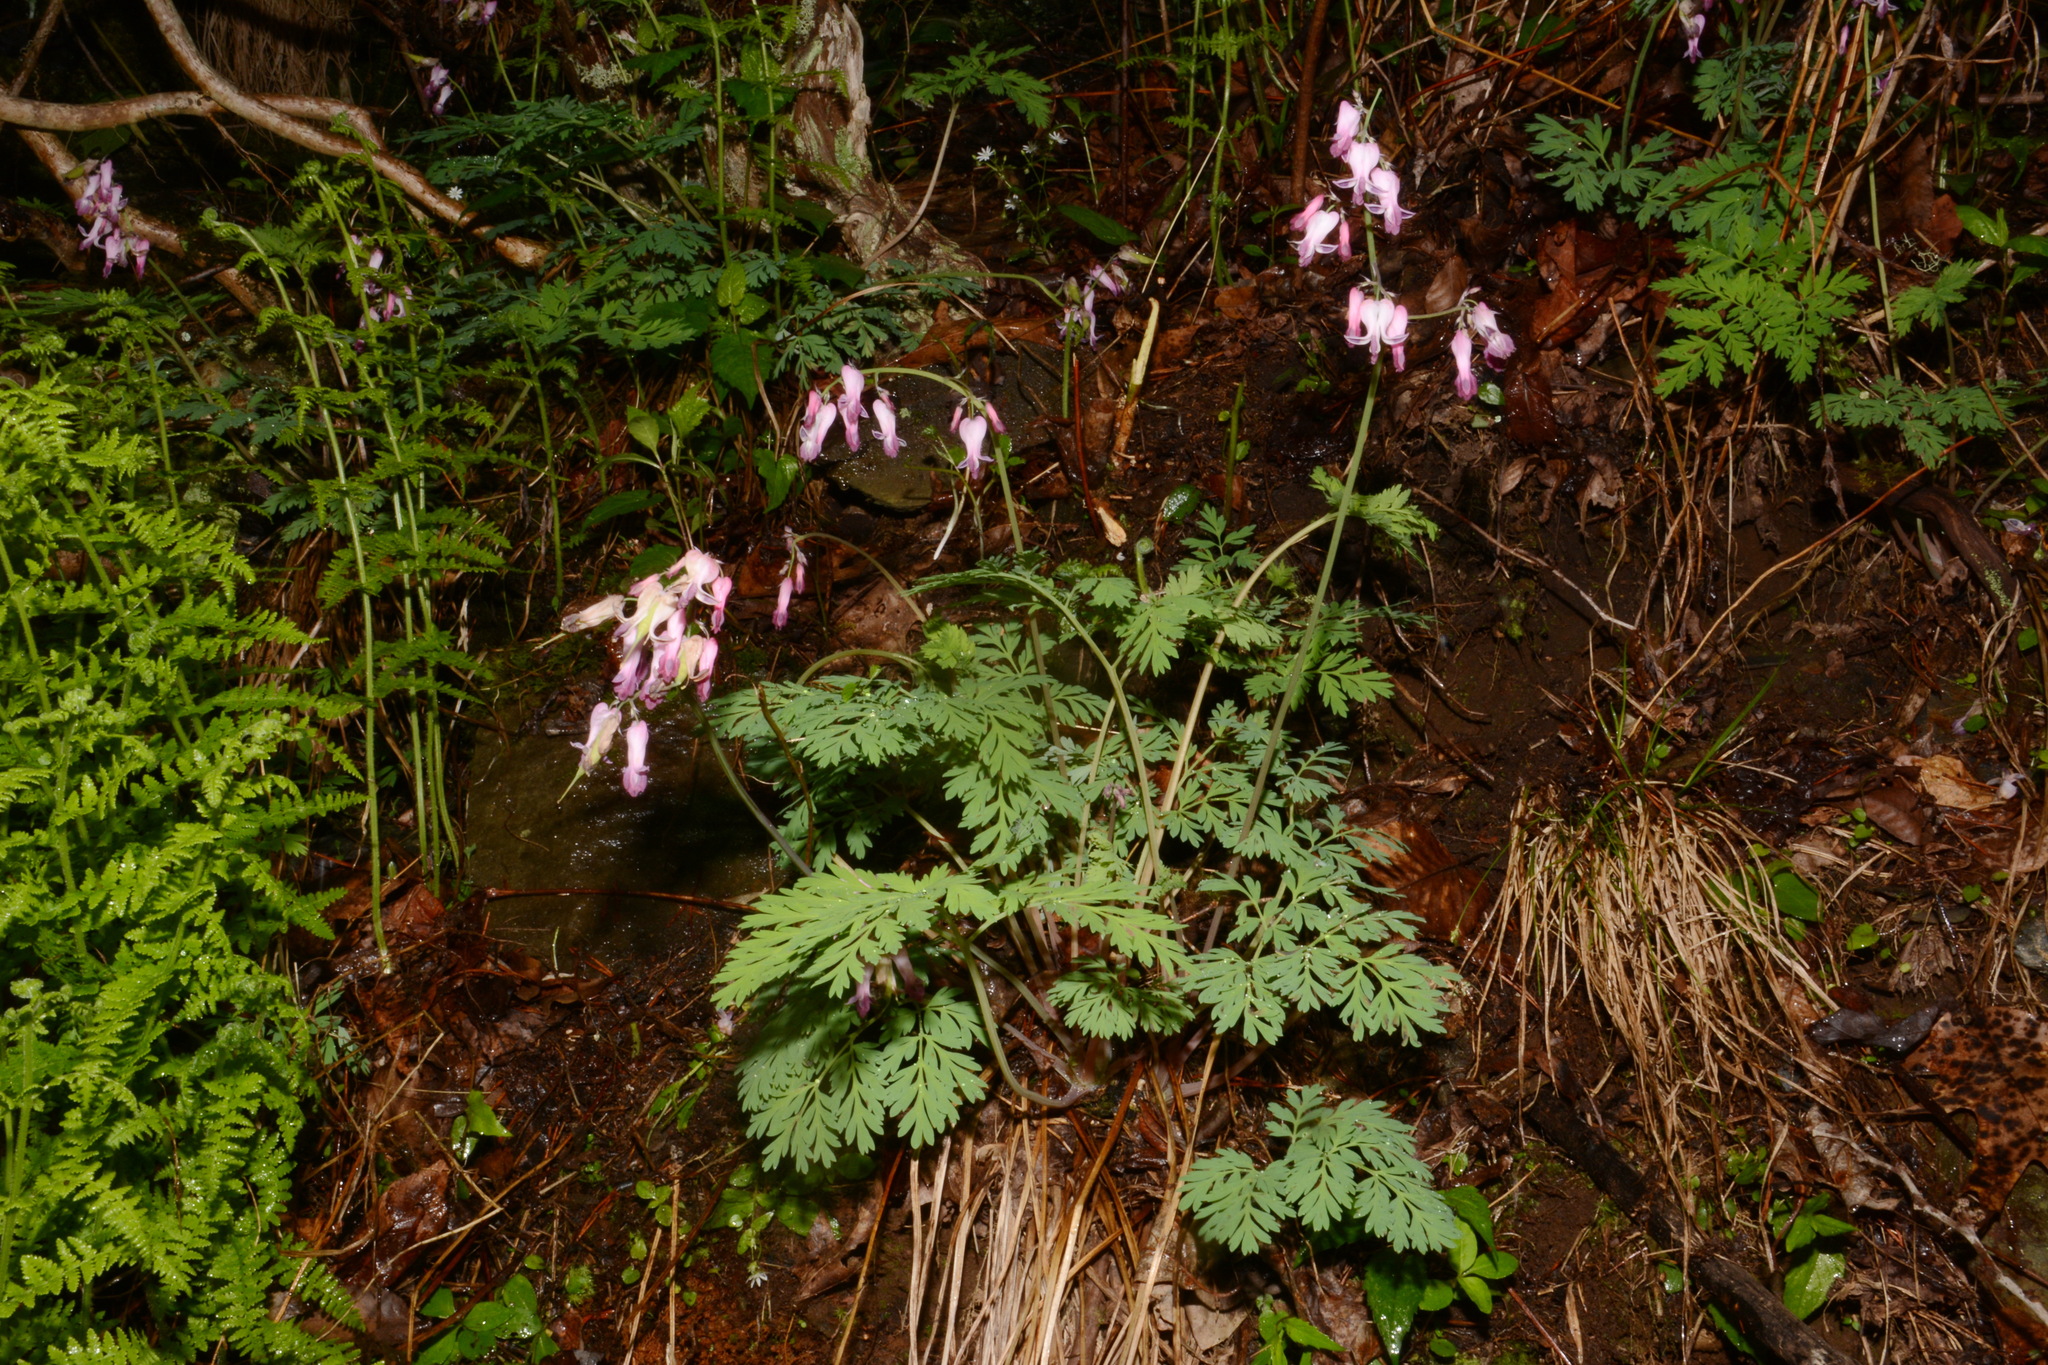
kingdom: Plantae
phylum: Tracheophyta
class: Magnoliopsida
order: Ranunculales
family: Papaveraceae
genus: Dicentra
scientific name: Dicentra eximia
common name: Turkey-corn
